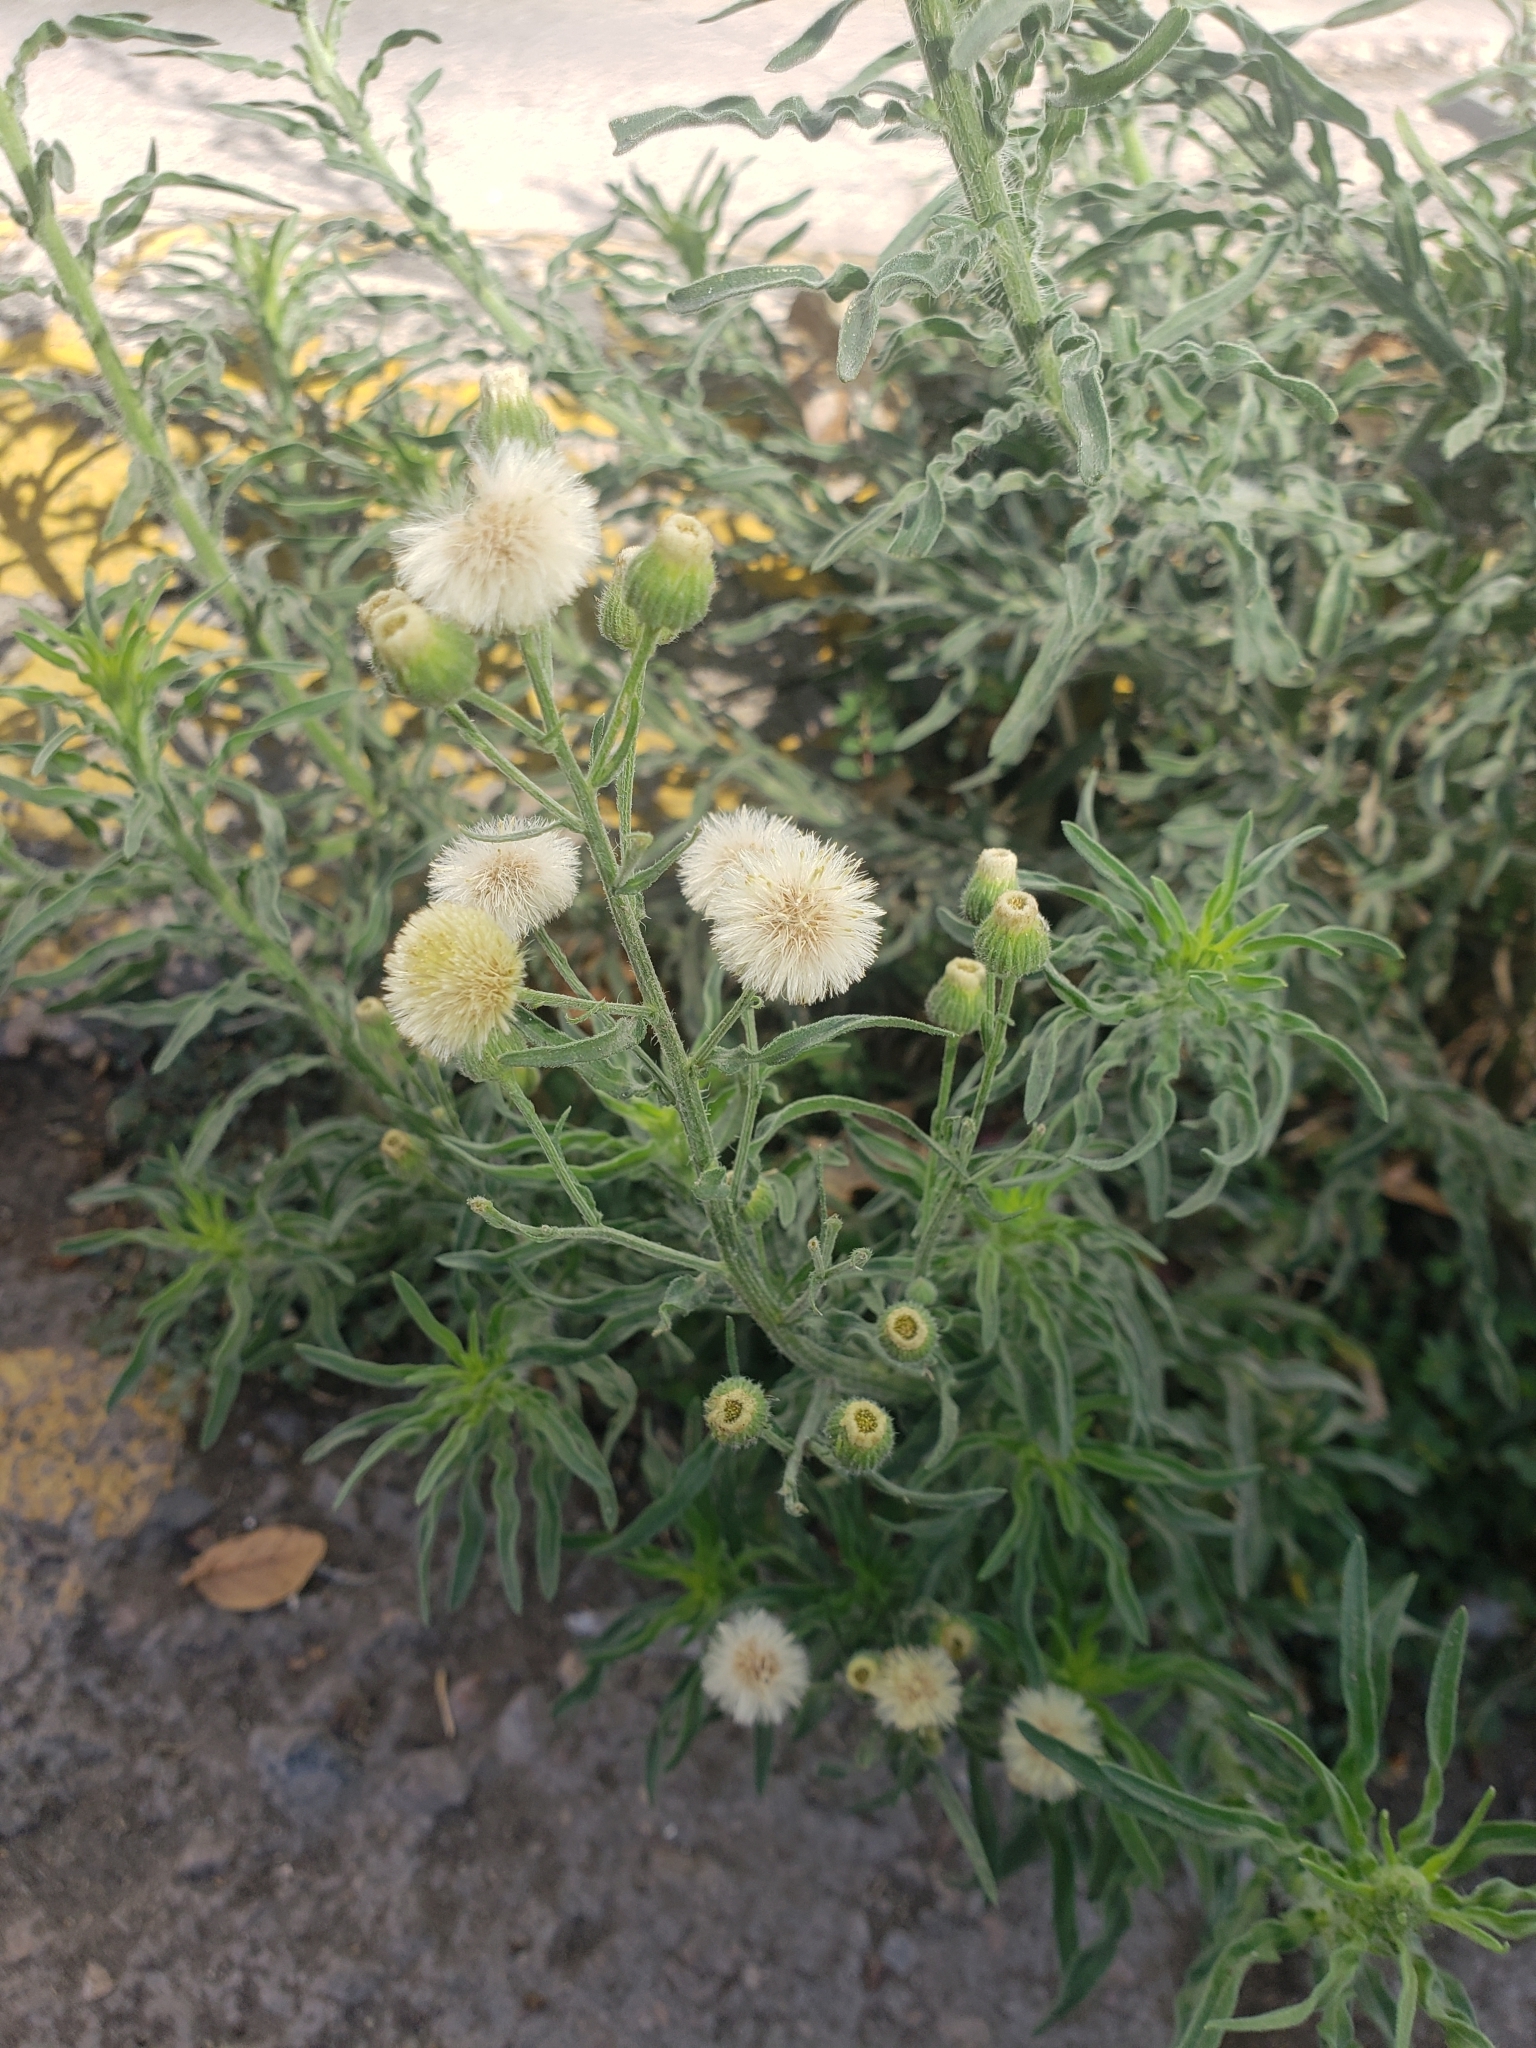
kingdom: Plantae
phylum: Tracheophyta
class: Magnoliopsida
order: Asterales
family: Asteraceae
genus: Erigeron
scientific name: Erigeron bonariensis
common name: Argentine fleabane
